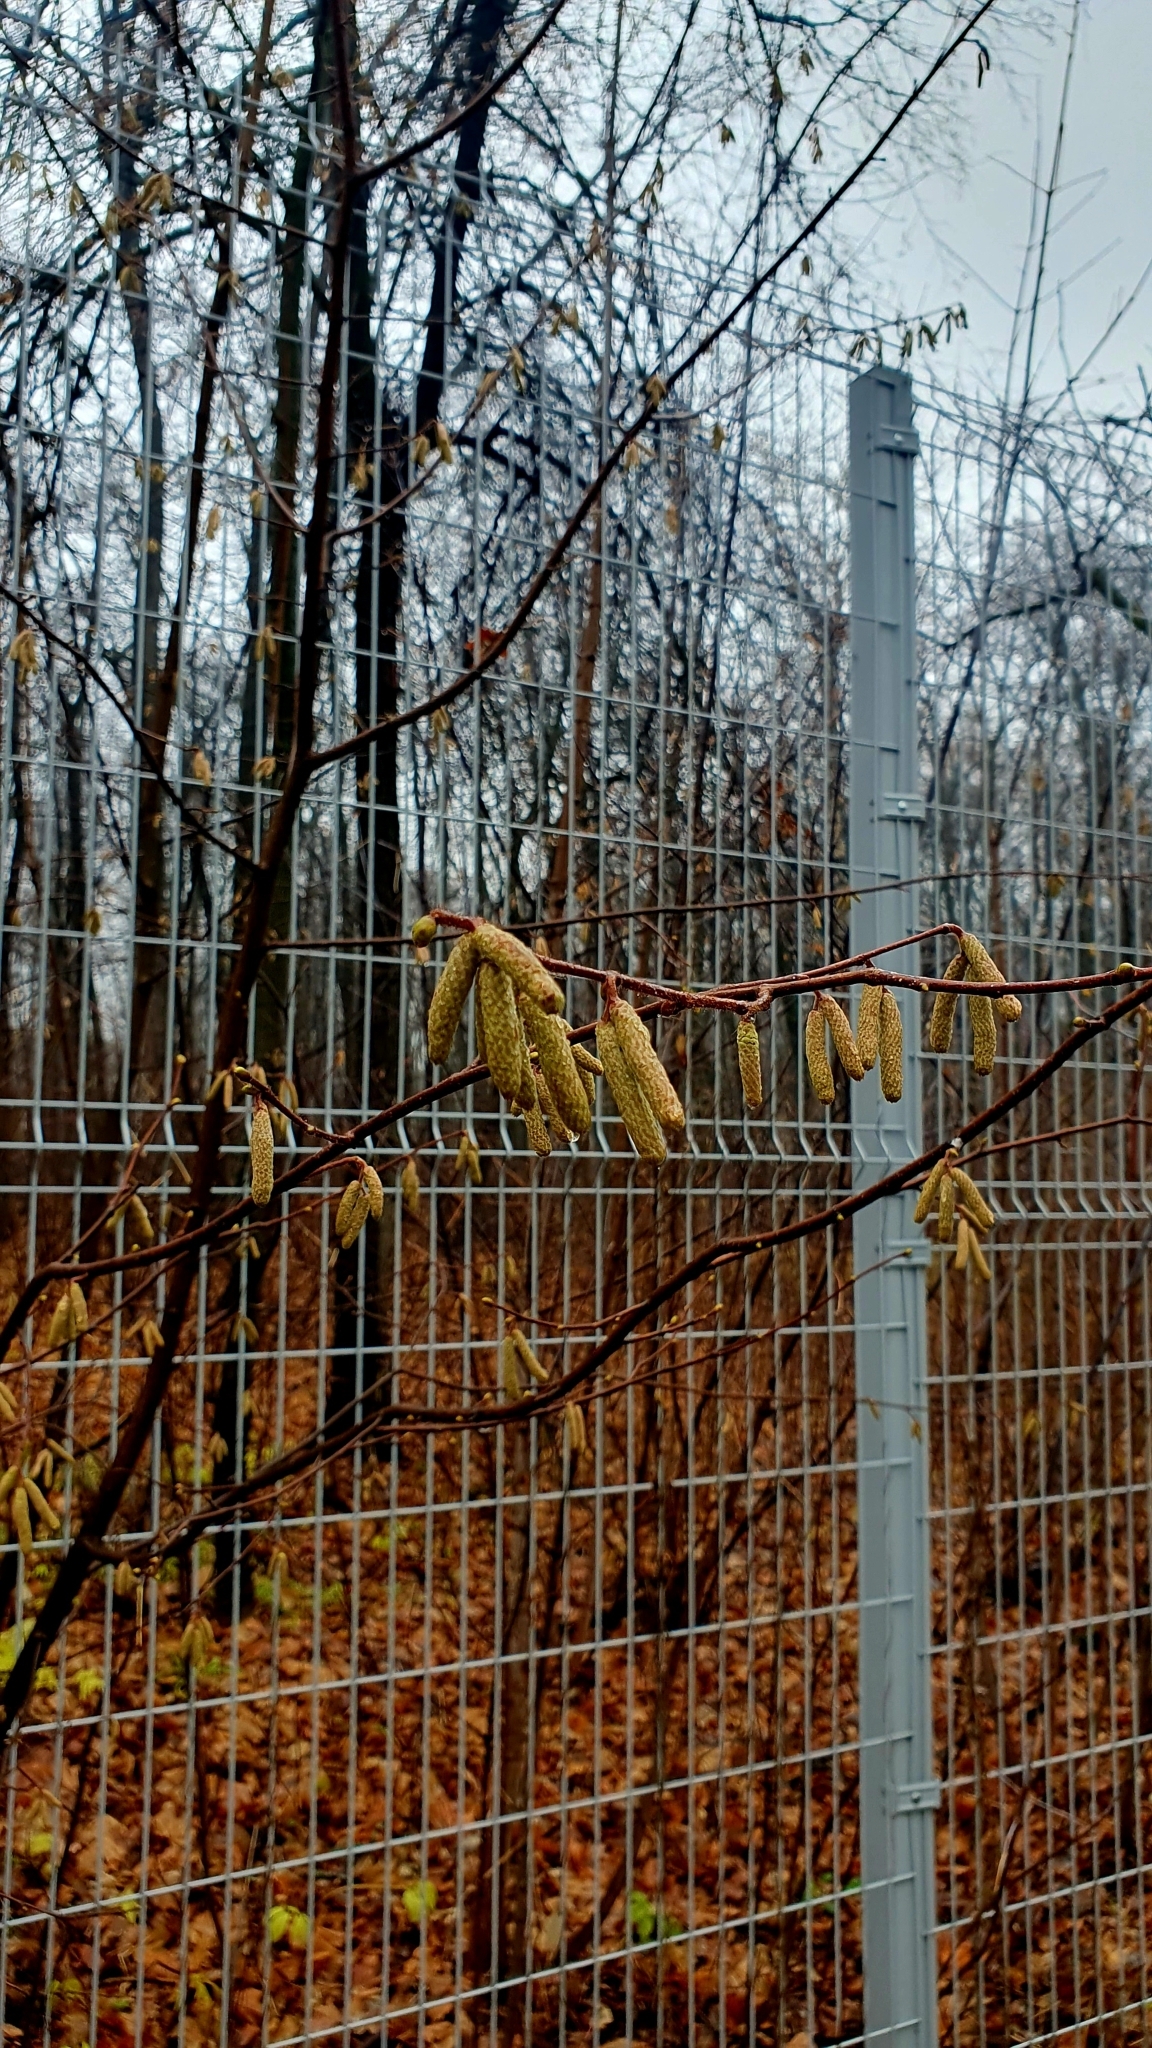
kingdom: Plantae
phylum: Tracheophyta
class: Magnoliopsida
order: Fagales
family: Betulaceae
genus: Corylus
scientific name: Corylus avellana
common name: European hazel
